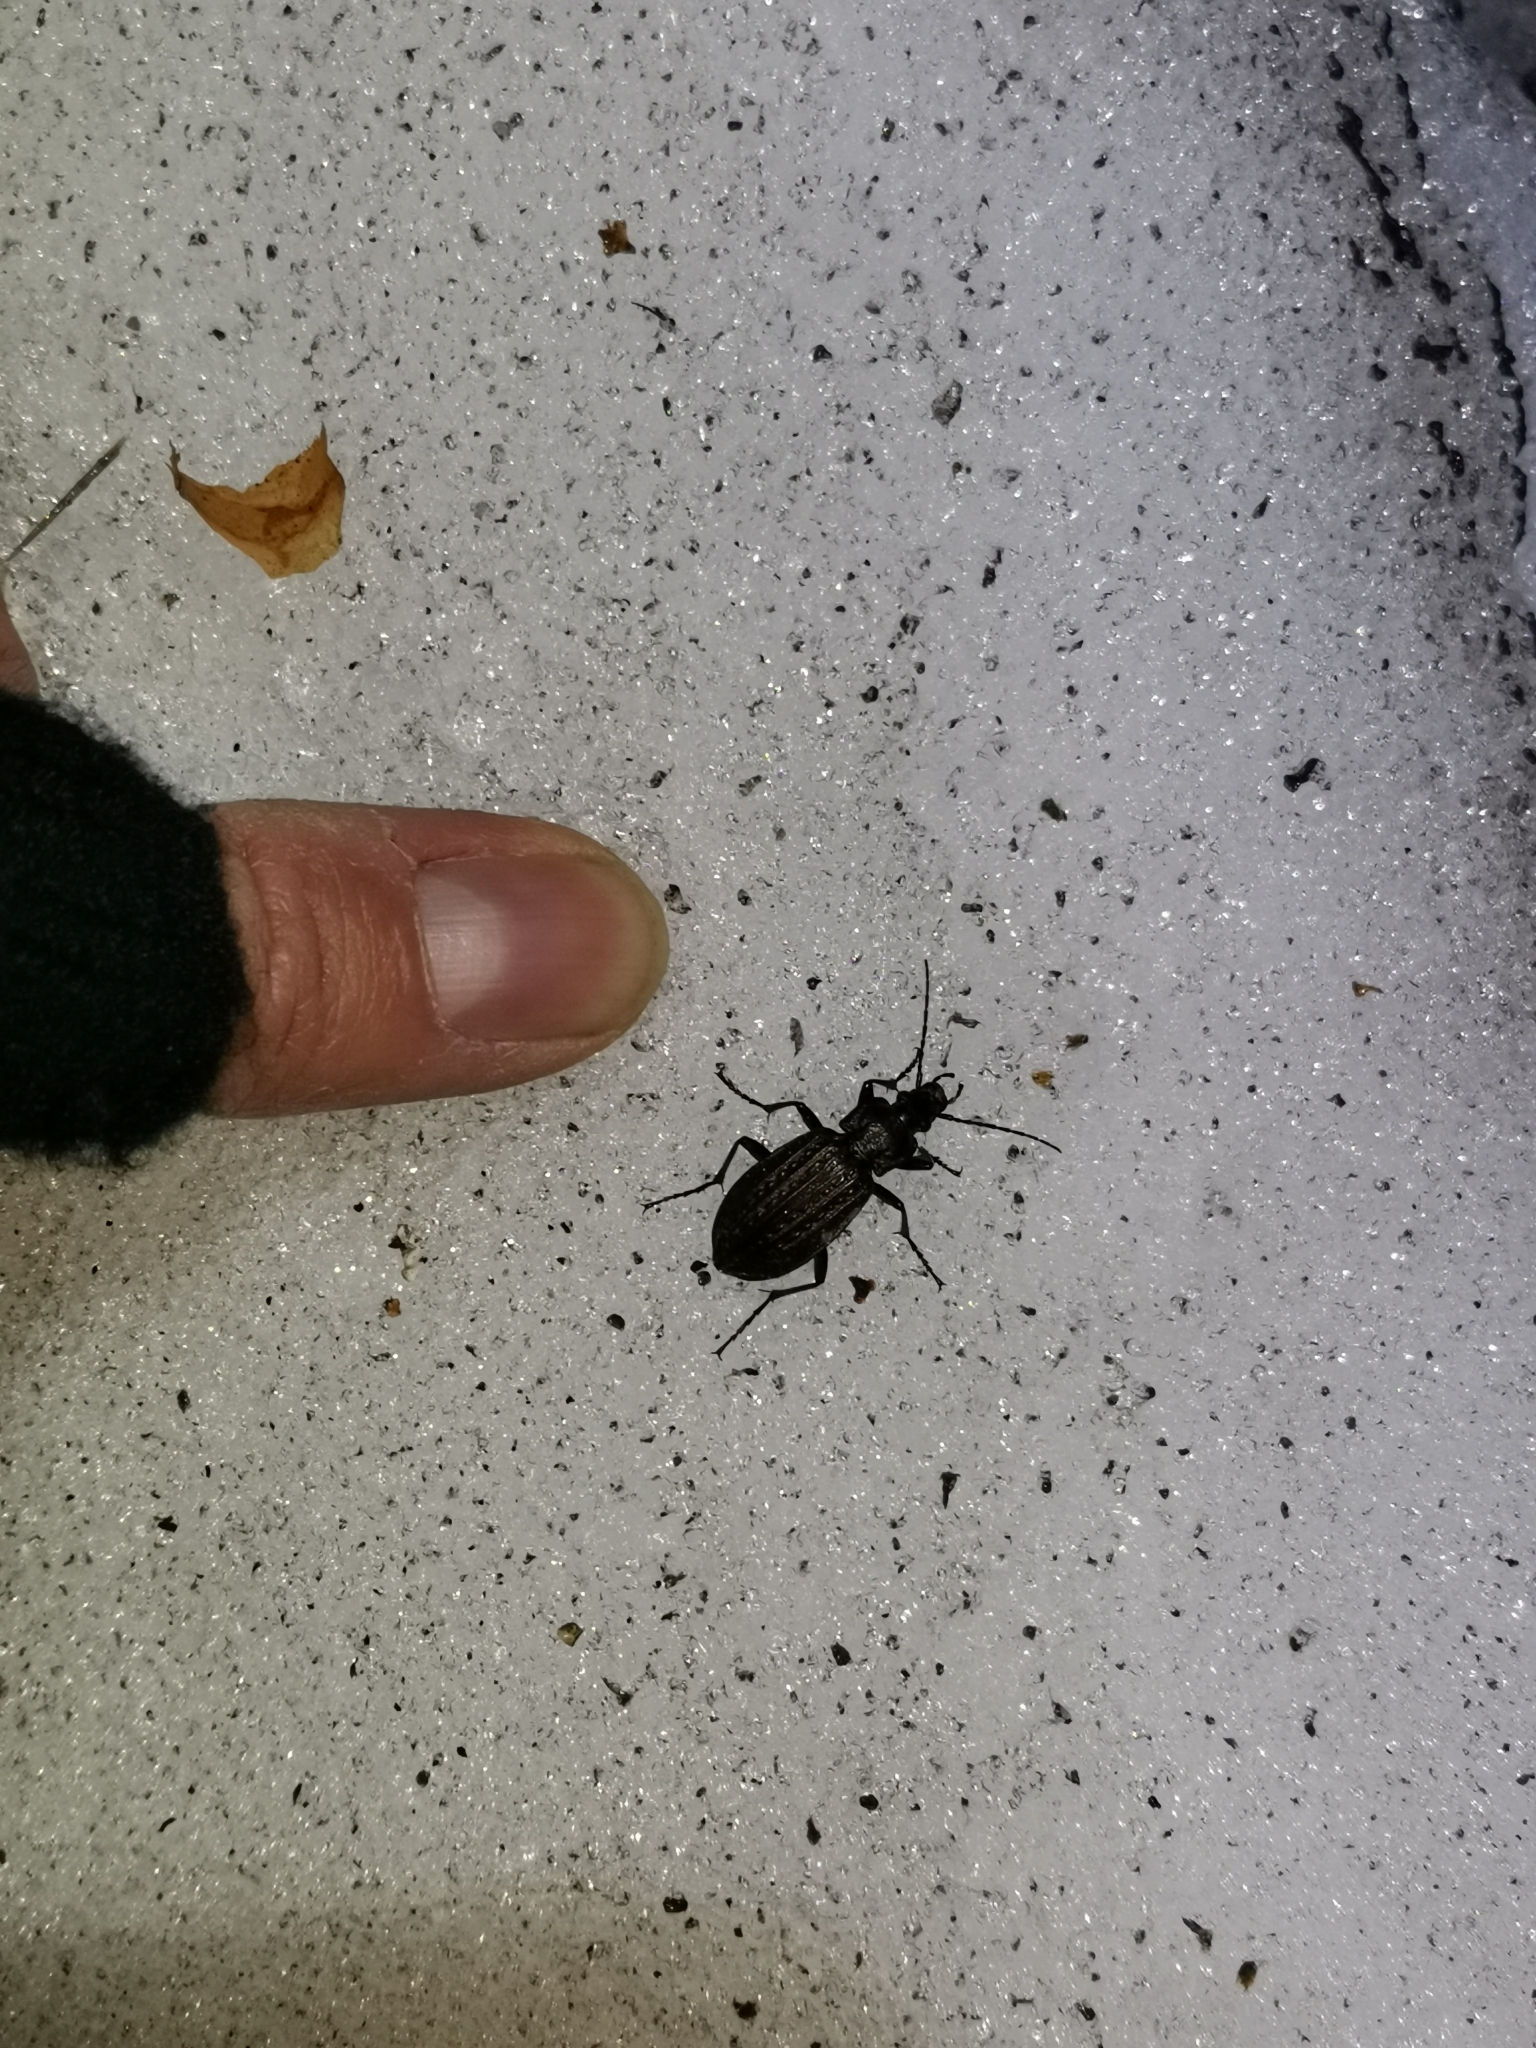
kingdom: Animalia
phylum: Arthropoda
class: Insecta
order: Coleoptera
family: Carabidae
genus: Carabus
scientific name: Carabus granulatus
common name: Granulate ground beetle
